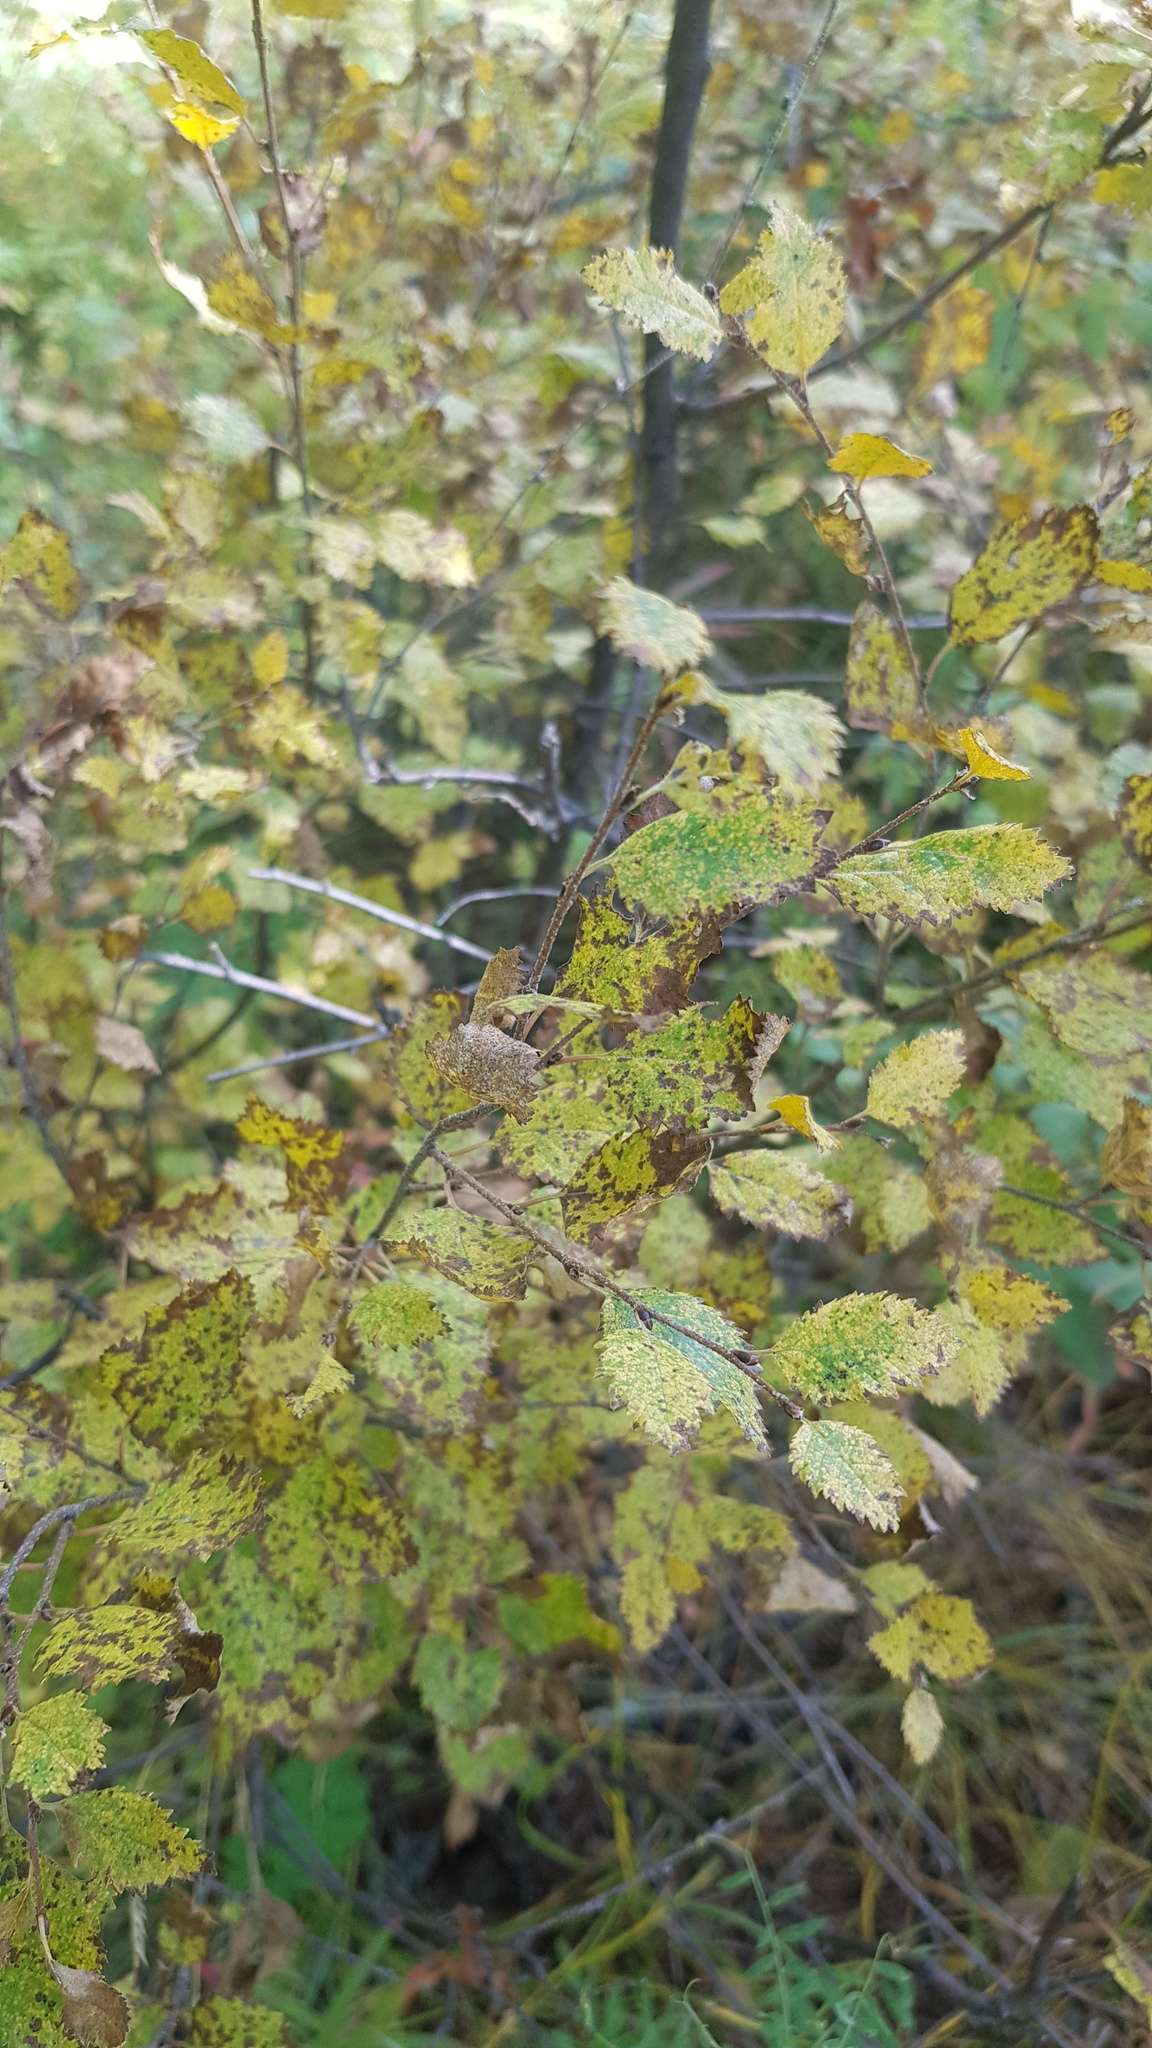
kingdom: Plantae
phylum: Tracheophyta
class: Magnoliopsida
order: Fagales
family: Betulaceae
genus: Betula
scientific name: Betula fruticosa
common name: Japanese bog birch
